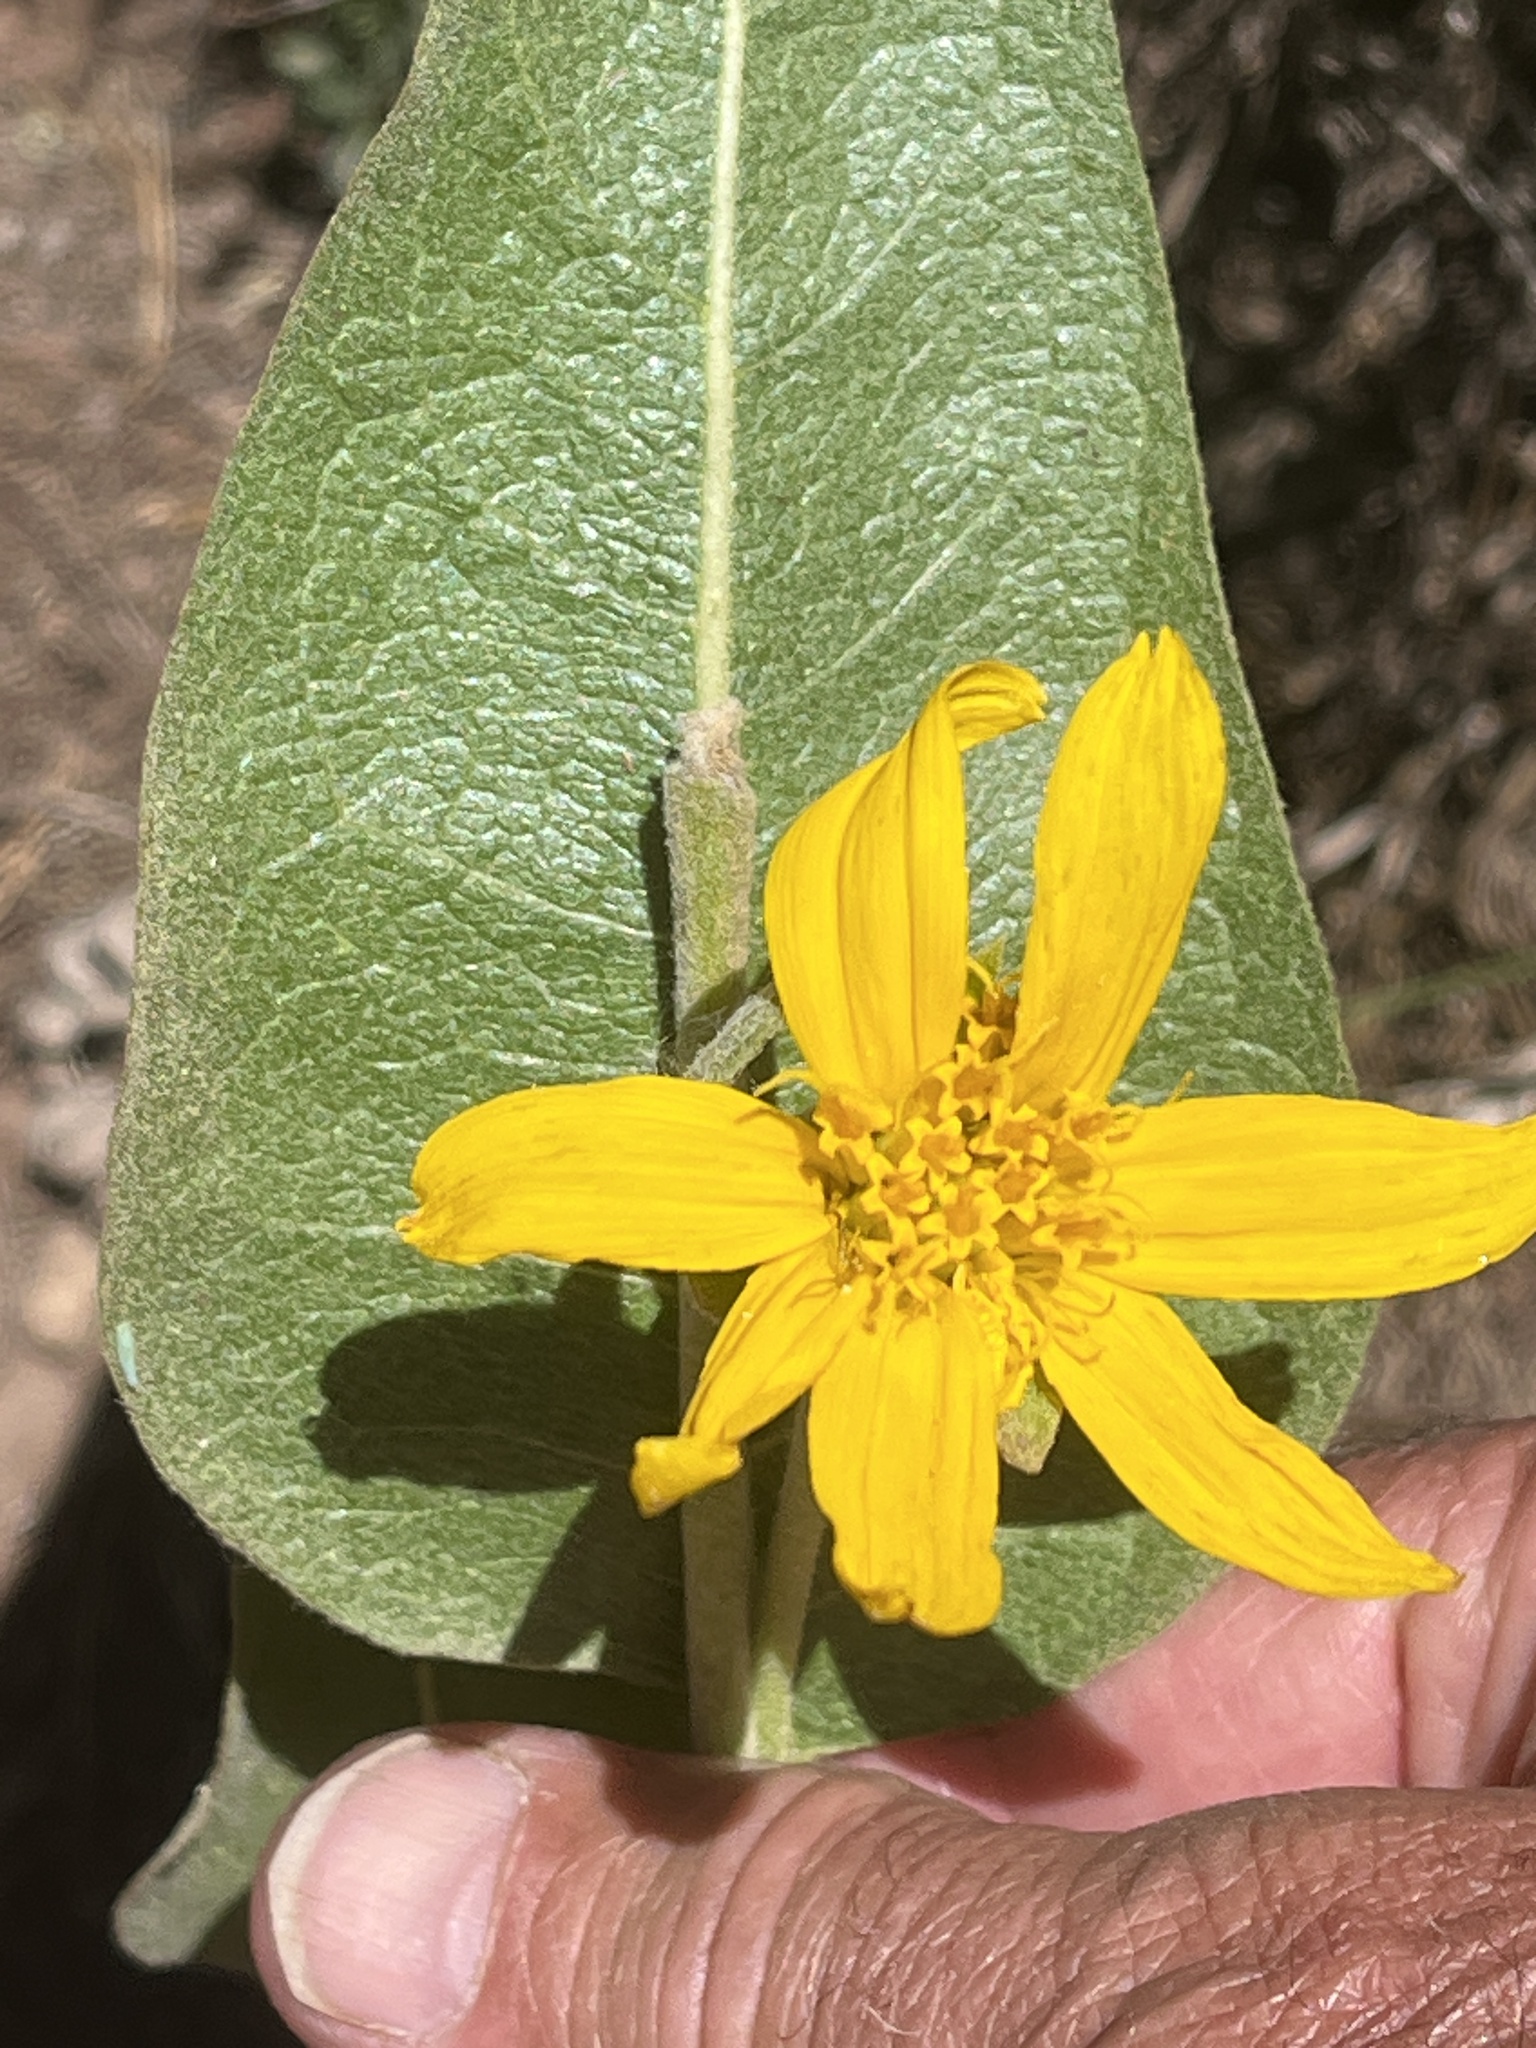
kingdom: Plantae
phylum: Tracheophyta
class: Magnoliopsida
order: Asterales
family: Asteraceae
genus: Wyethia
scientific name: Wyethia mollis
